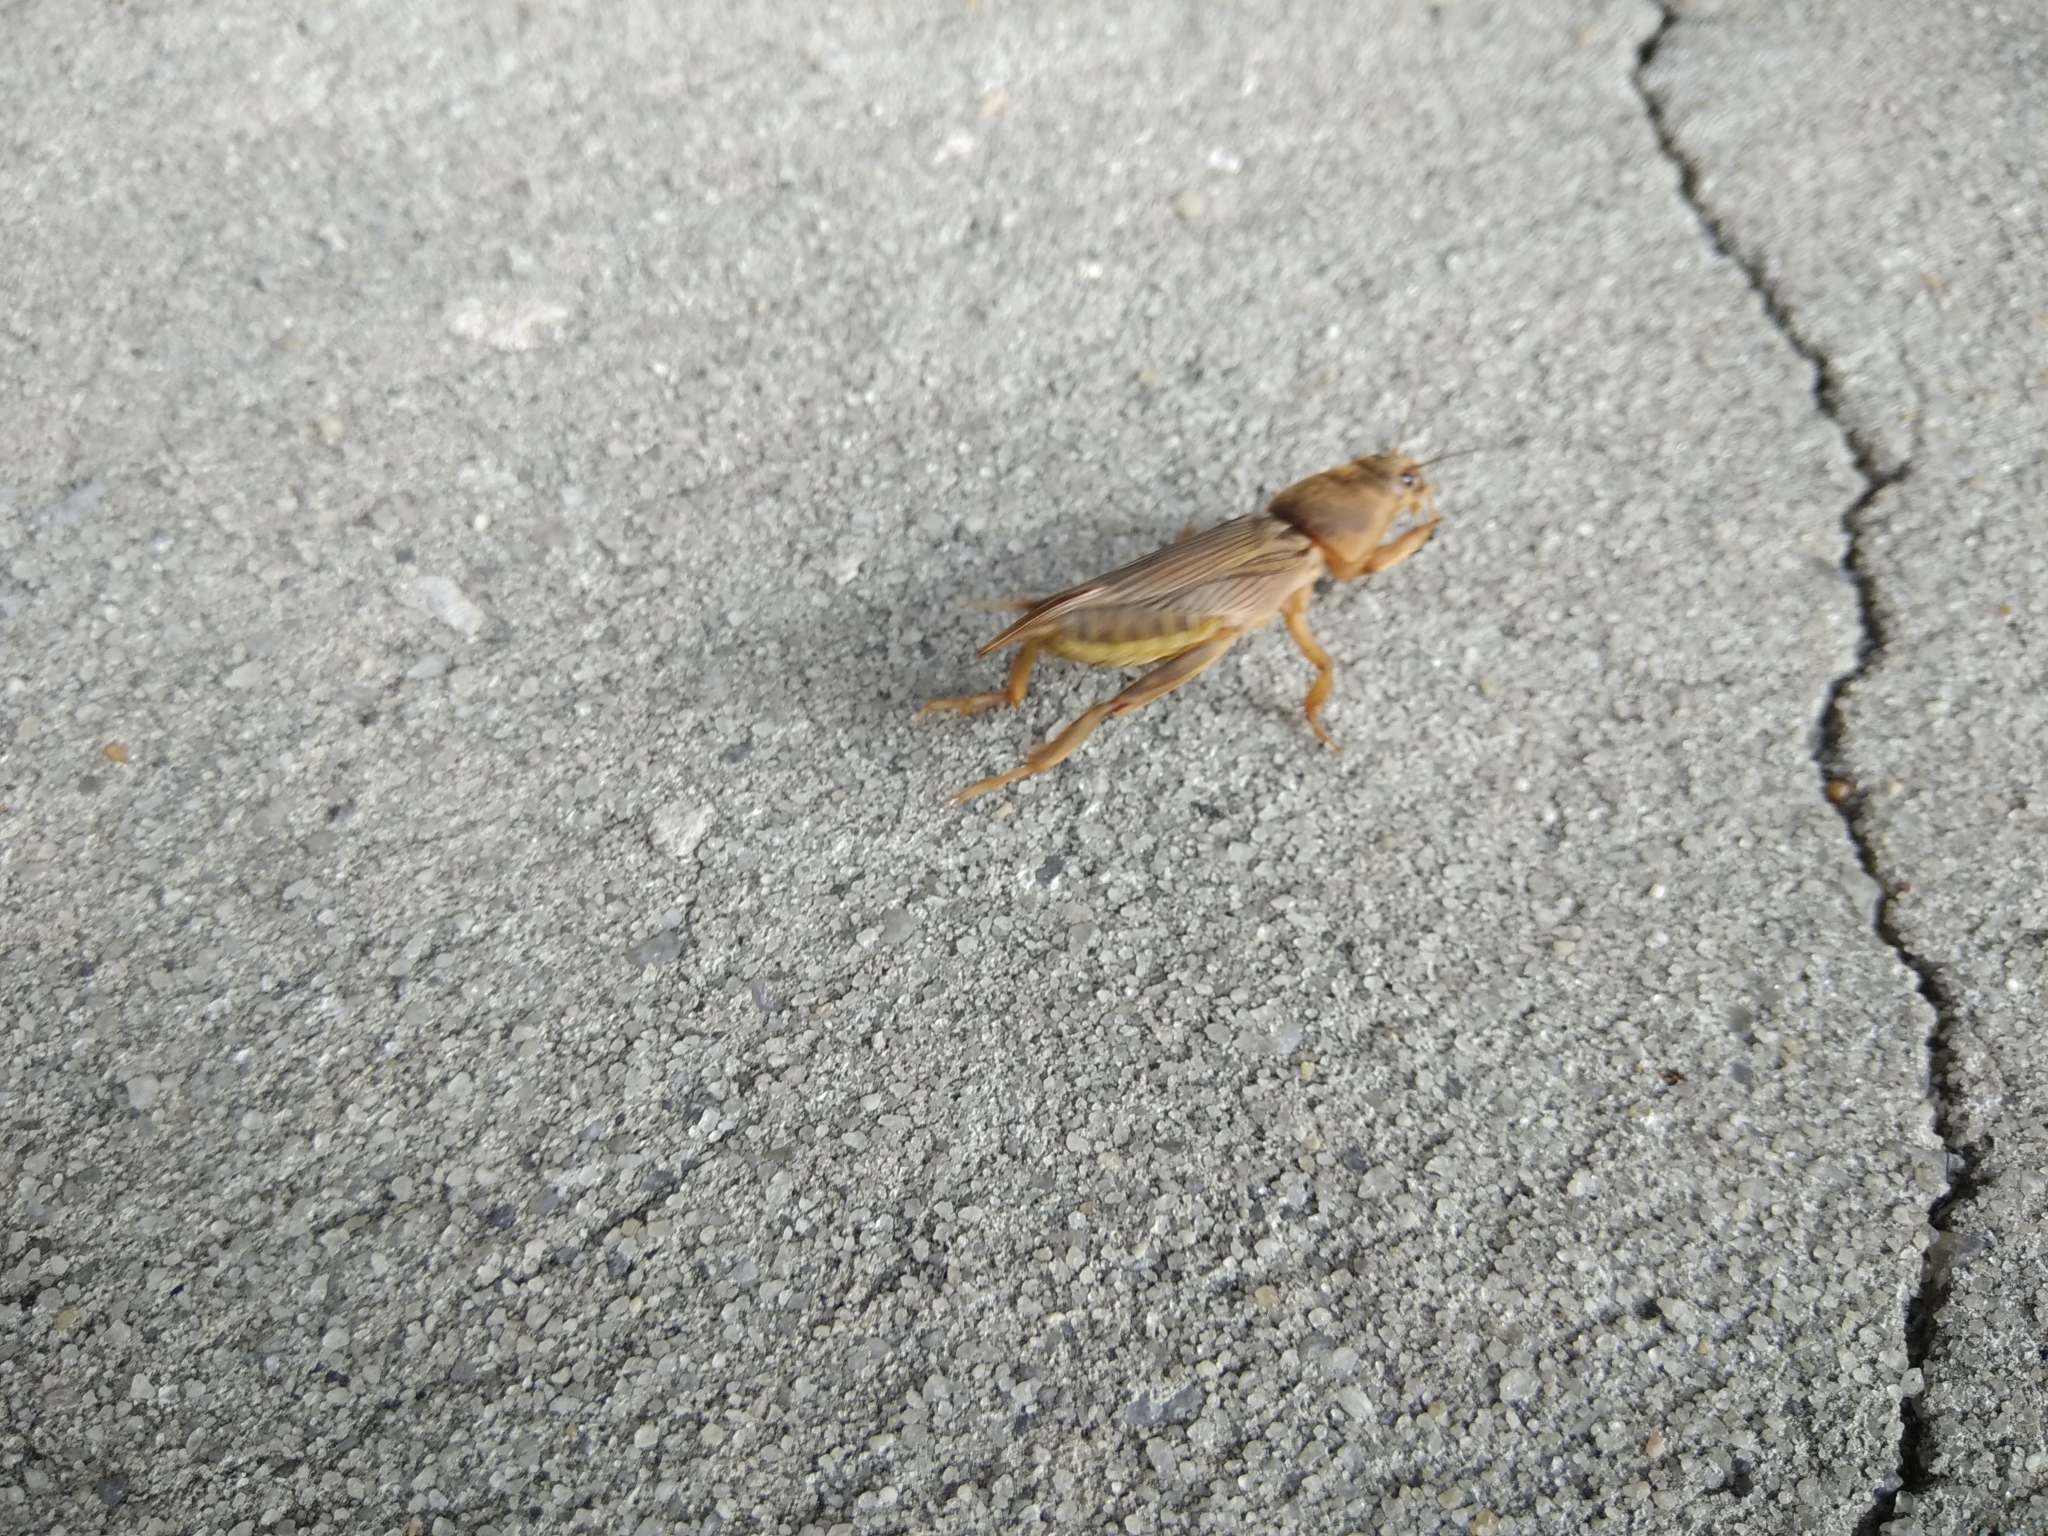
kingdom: Animalia
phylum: Arthropoda
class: Insecta
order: Orthoptera
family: Gryllotalpidae
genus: Neoscapteriscus
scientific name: Neoscapteriscus vicinus
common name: Tawny mole cricket
